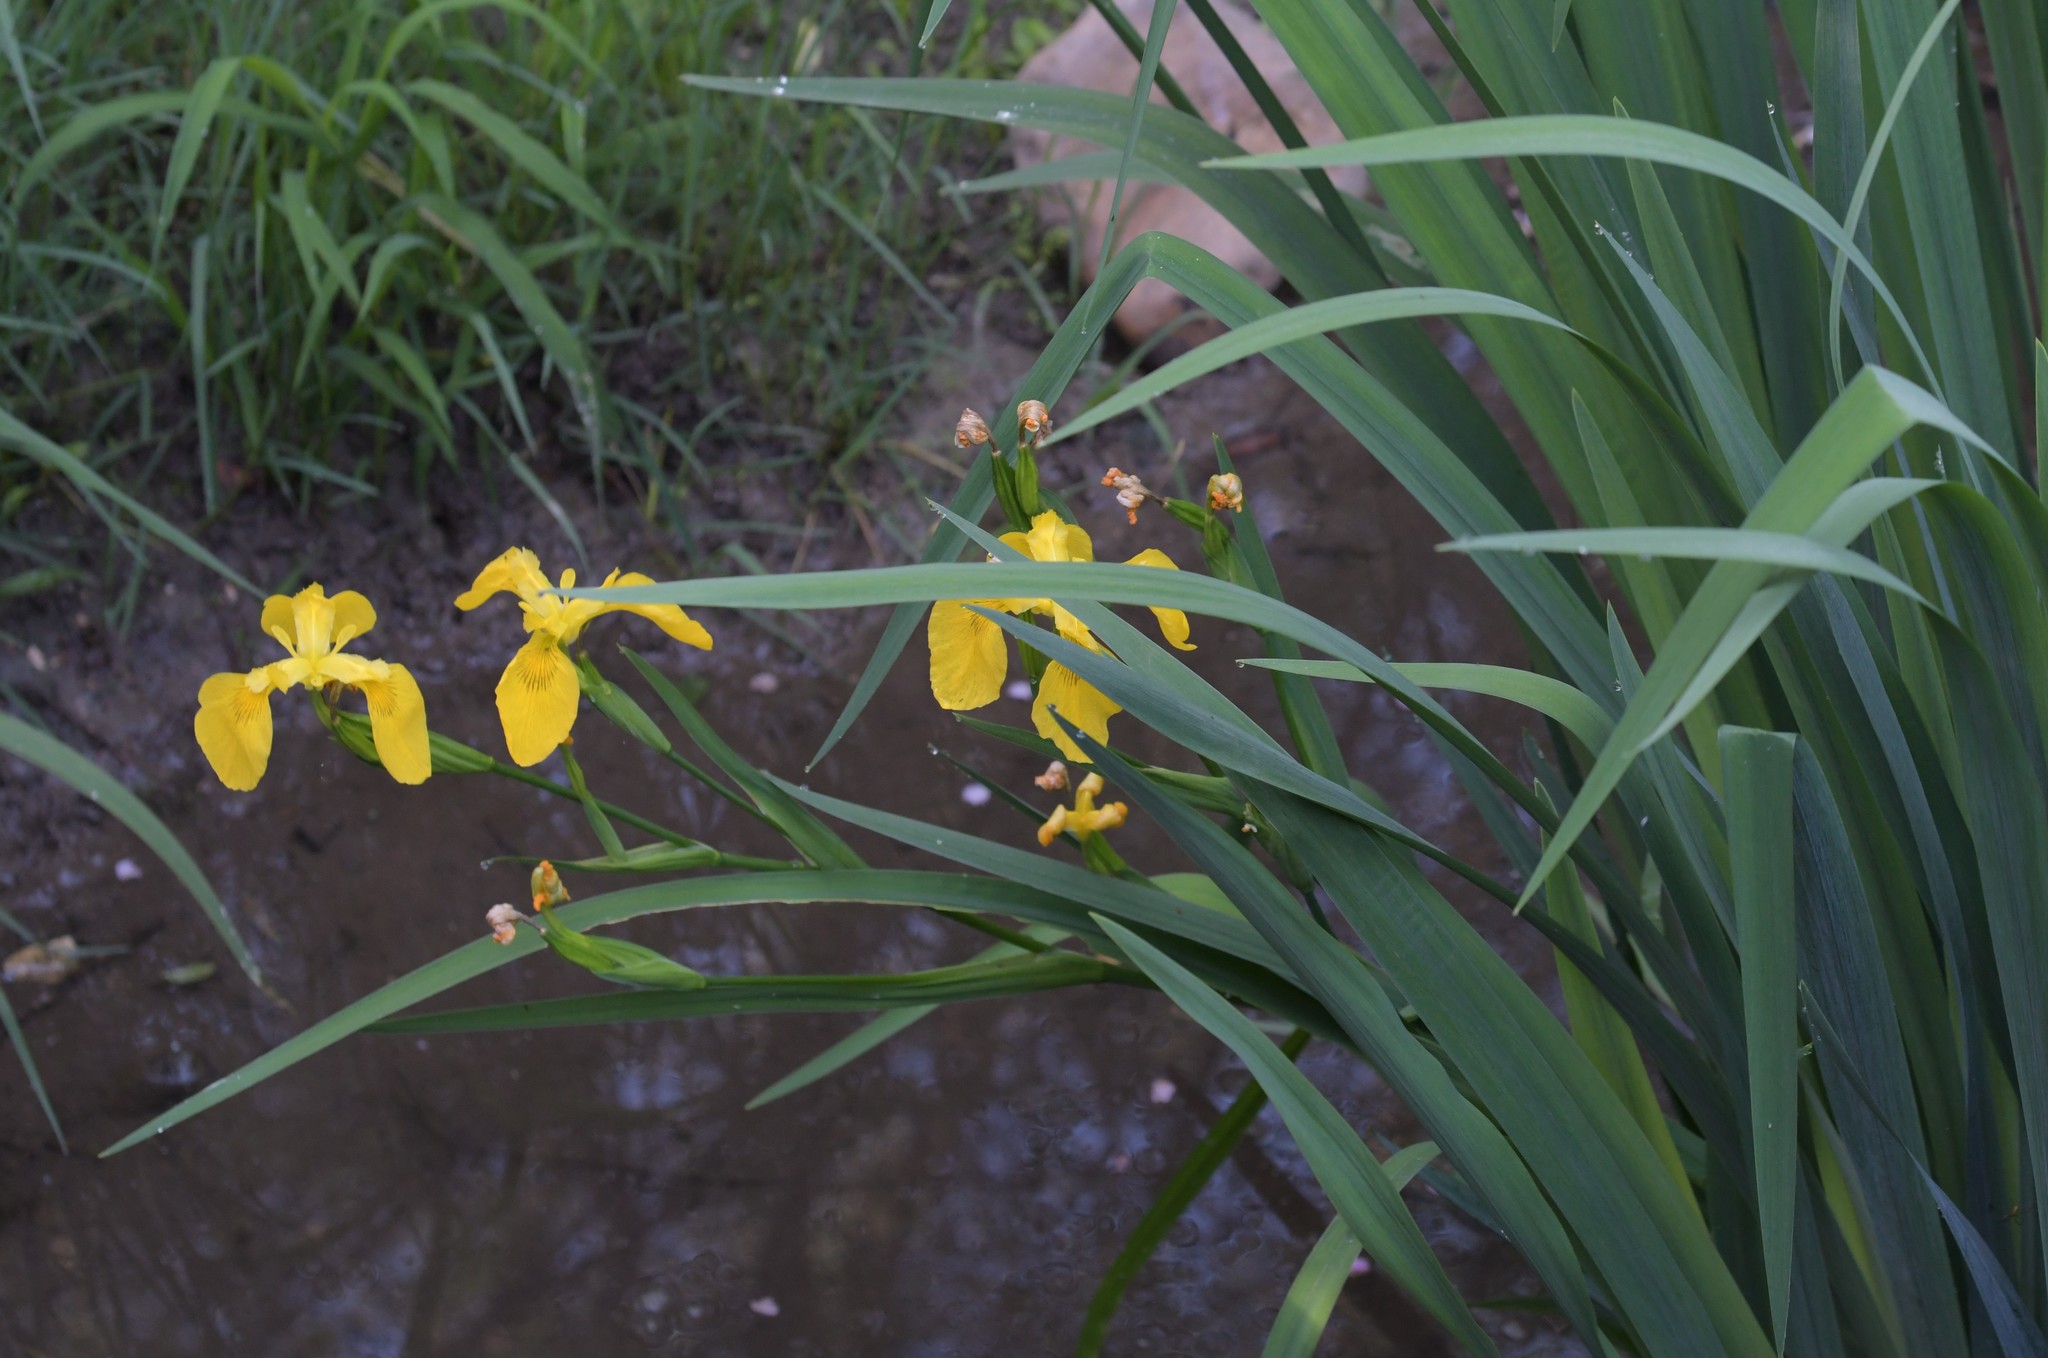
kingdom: Plantae
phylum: Tracheophyta
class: Liliopsida
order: Asparagales
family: Iridaceae
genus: Iris
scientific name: Iris pseudacorus
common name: Yellow flag
